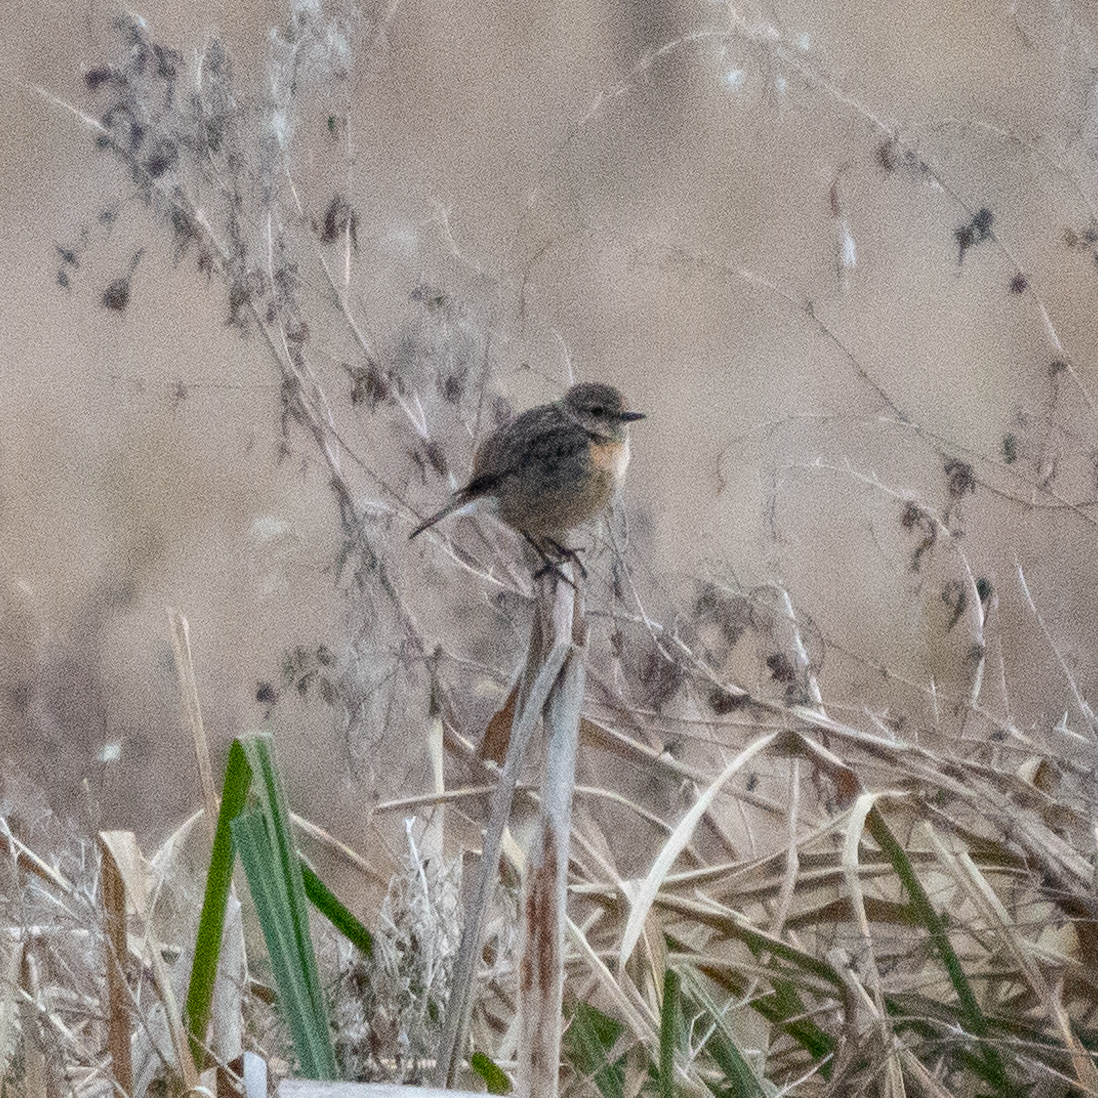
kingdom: Animalia
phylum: Chordata
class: Aves
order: Passeriformes
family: Muscicapidae
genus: Saxicola
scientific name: Saxicola rubicola
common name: European stonechat
